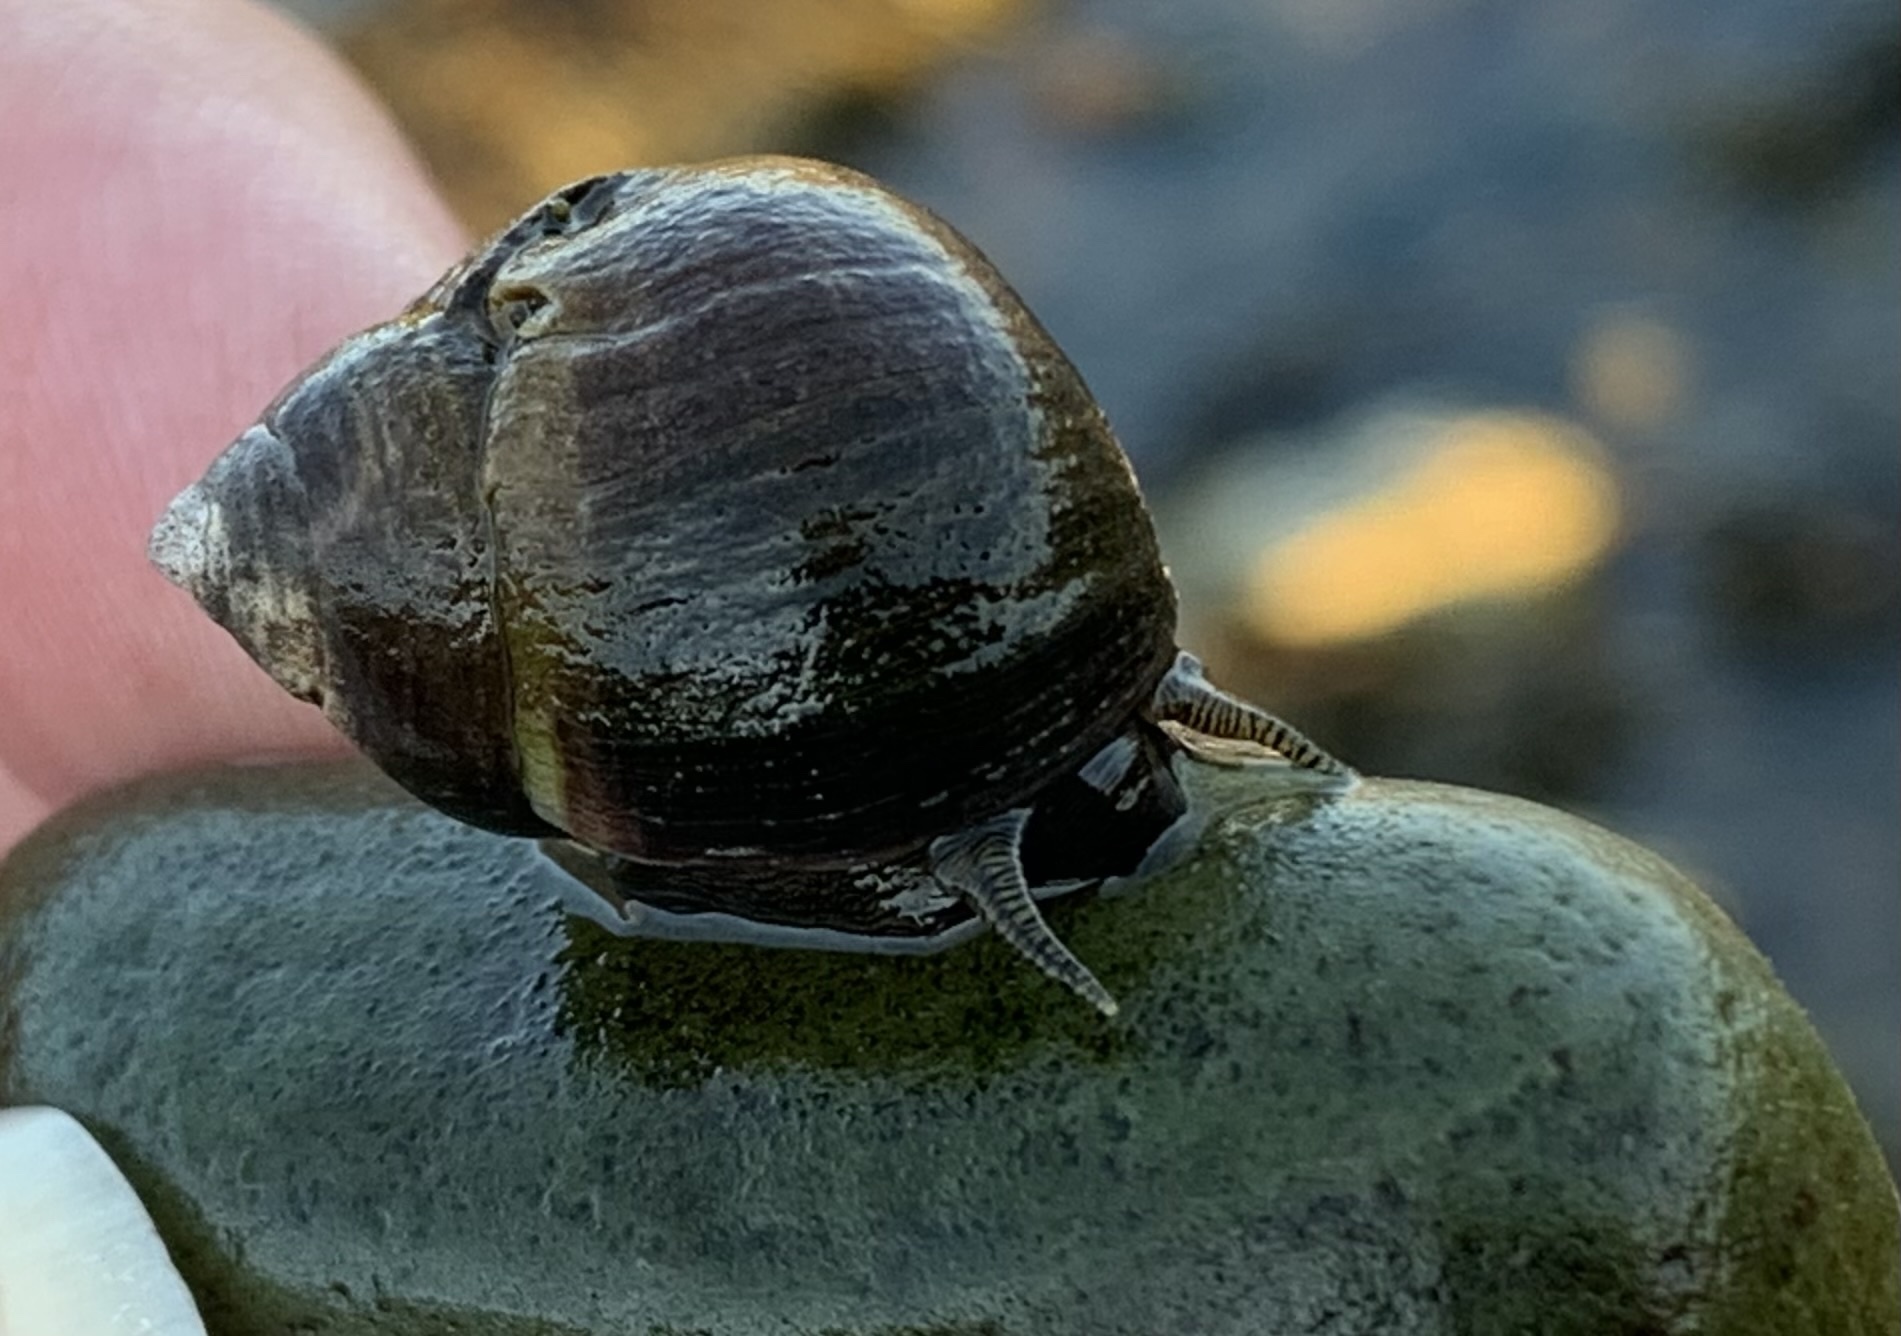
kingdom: Animalia
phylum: Mollusca
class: Gastropoda
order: Littorinimorpha
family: Littorinidae
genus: Littorina
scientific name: Littorina littorea
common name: Common periwinkle
